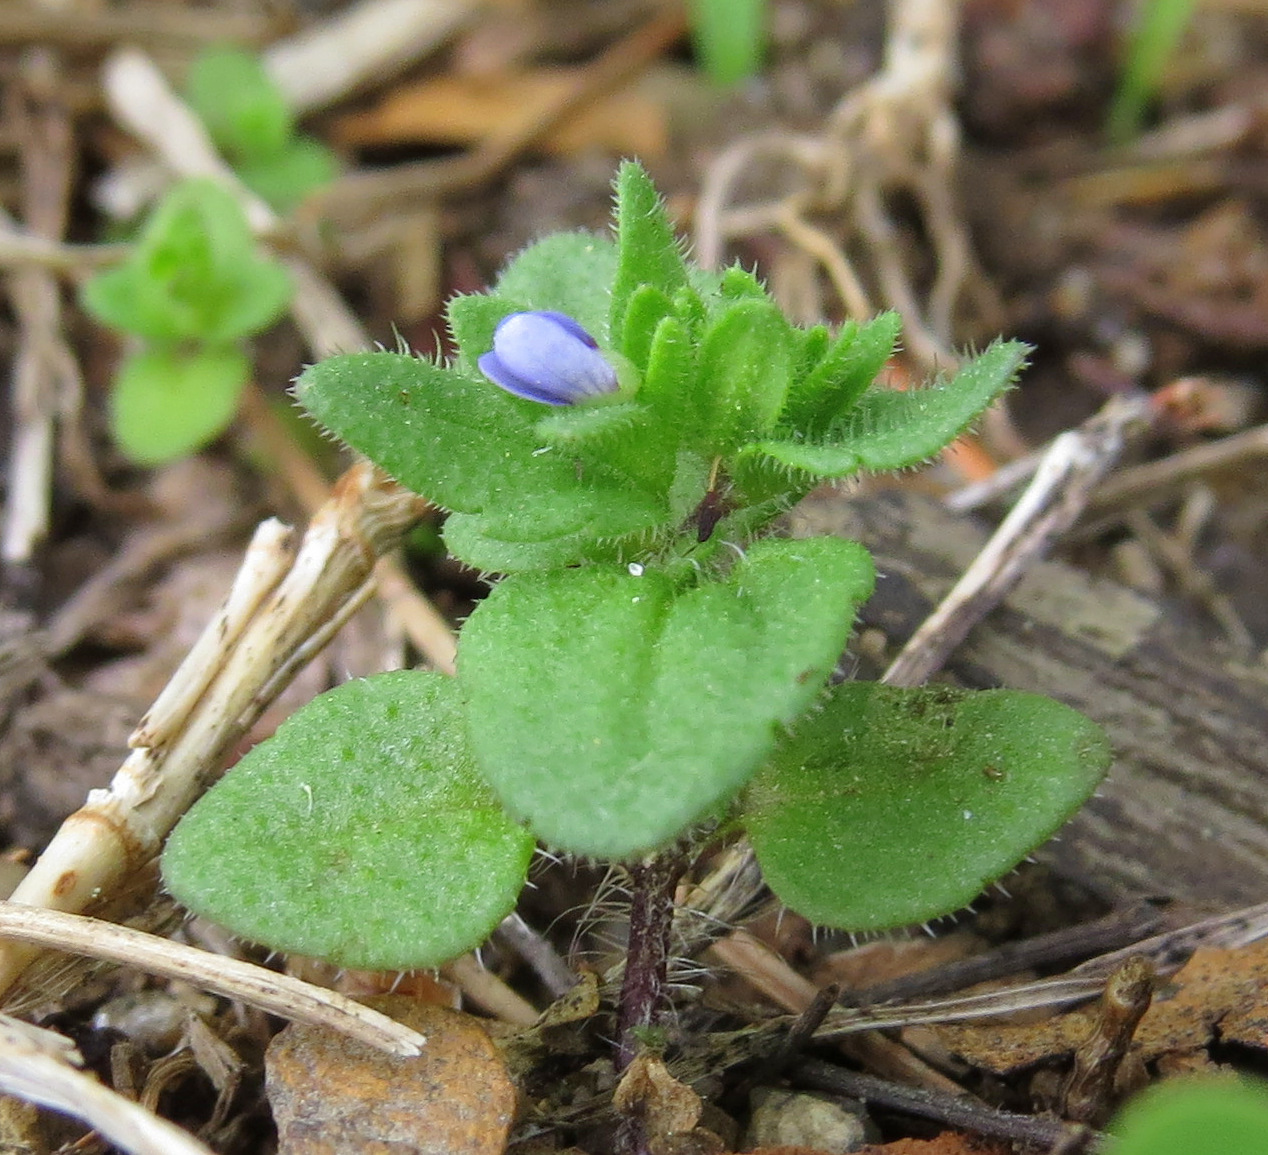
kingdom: Plantae
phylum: Tracheophyta
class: Magnoliopsida
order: Lamiales
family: Plantaginaceae
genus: Veronica
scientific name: Veronica arvensis
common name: Corn speedwell
